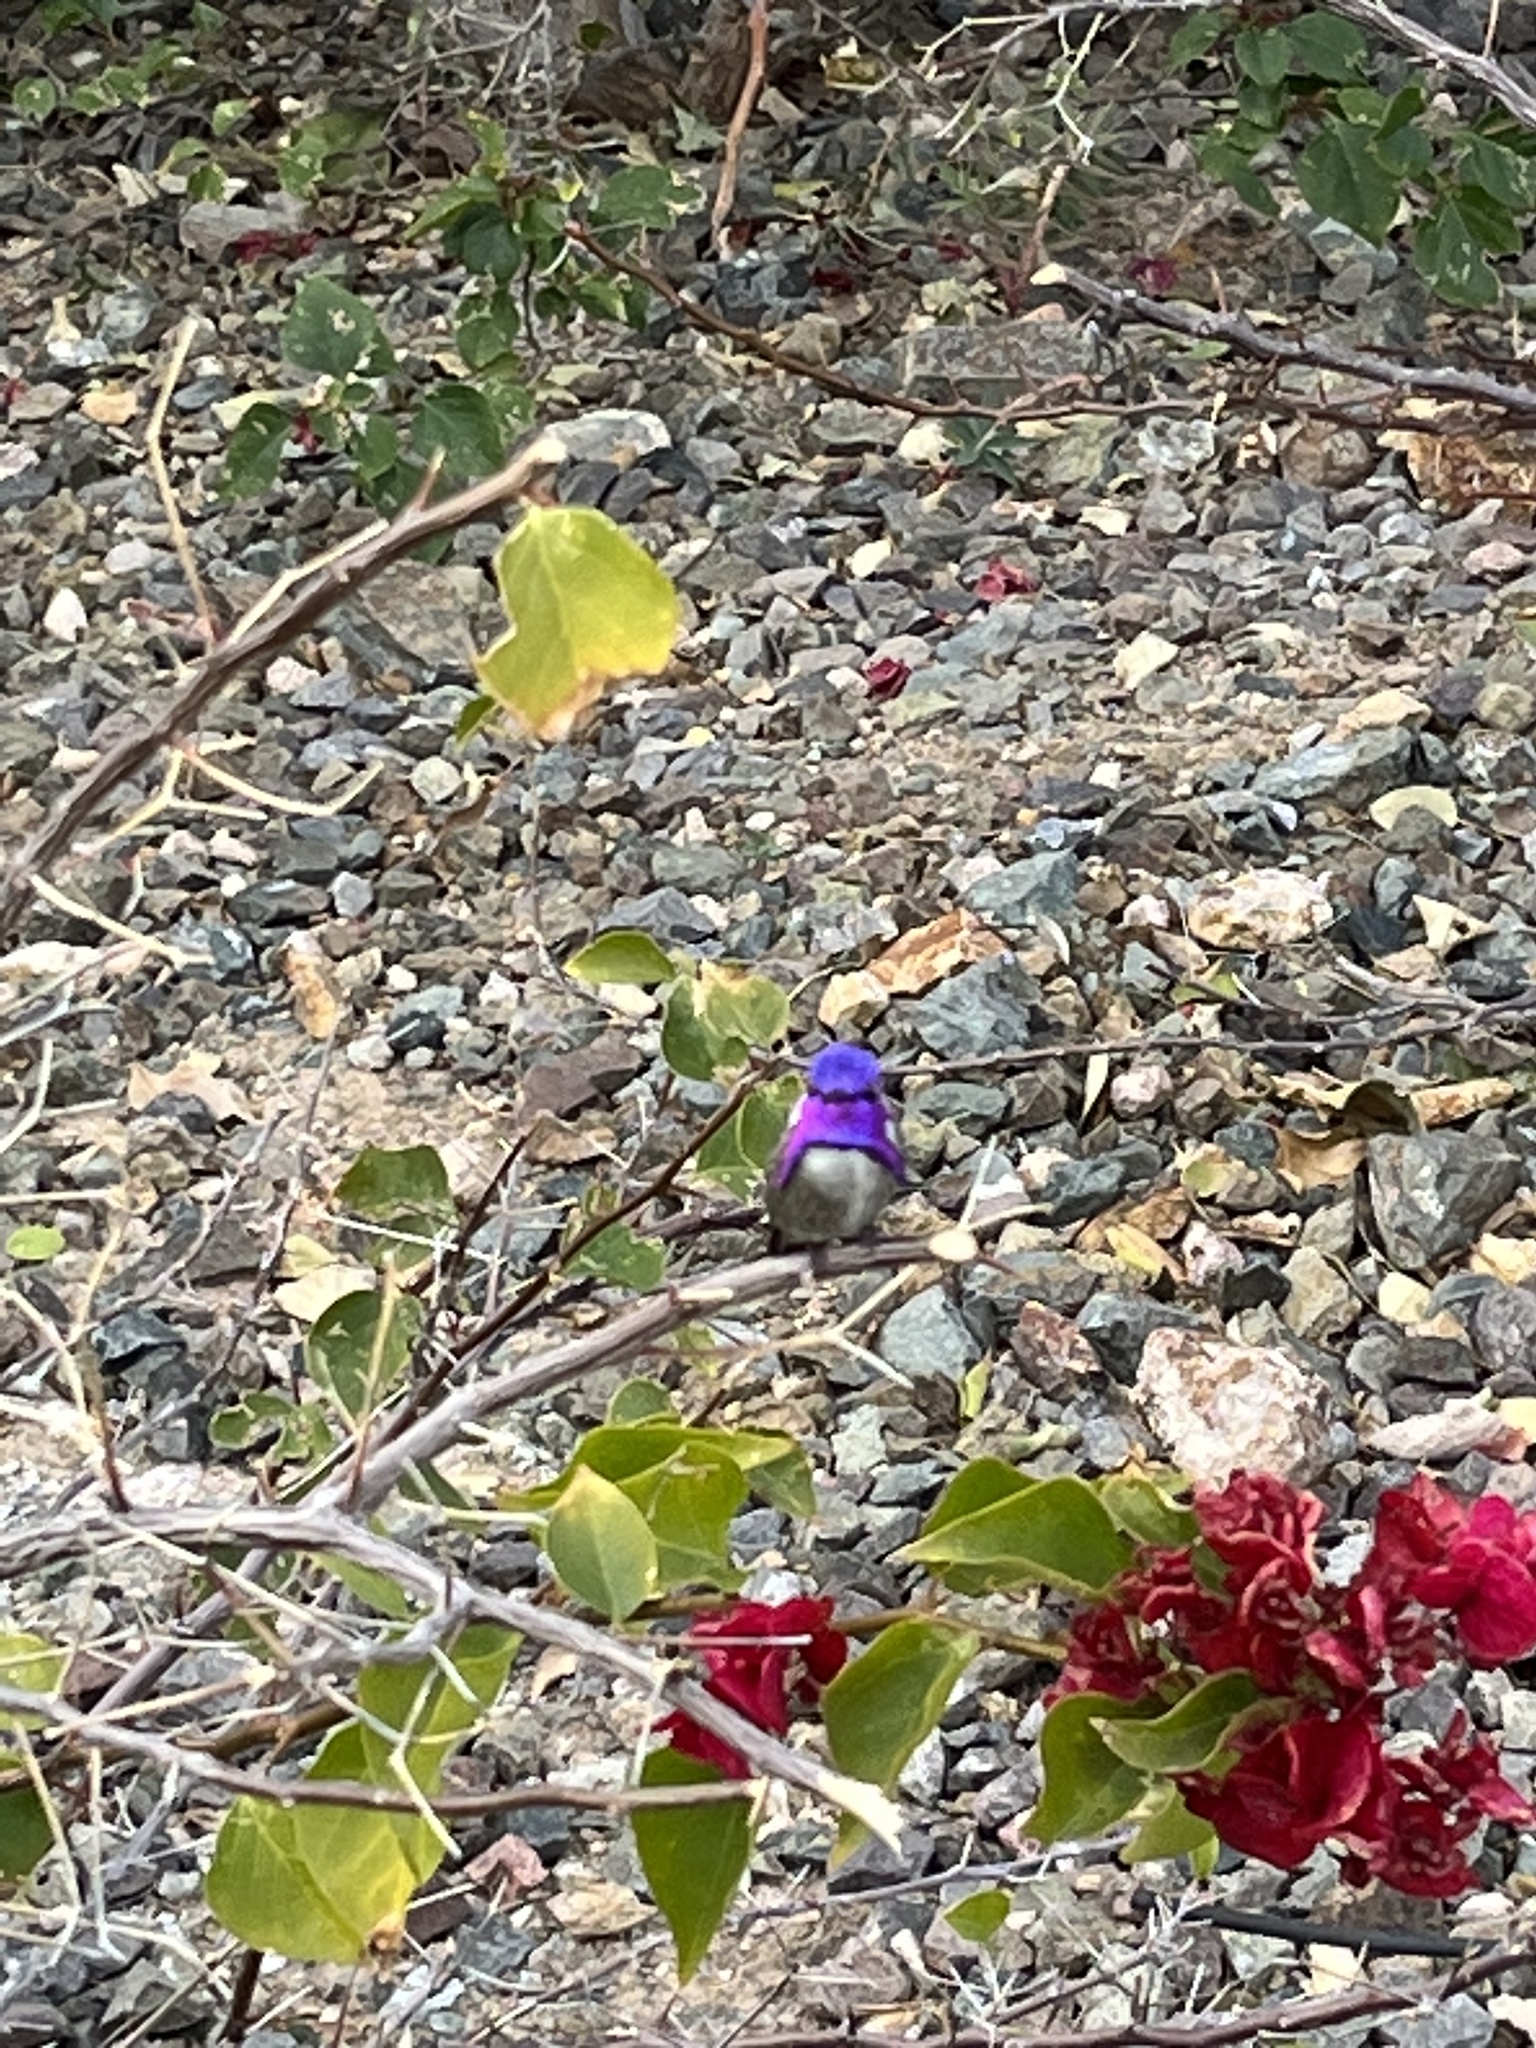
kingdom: Animalia
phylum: Chordata
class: Aves
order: Apodiformes
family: Trochilidae
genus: Calypte
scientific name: Calypte costae
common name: Costa's hummingbird
